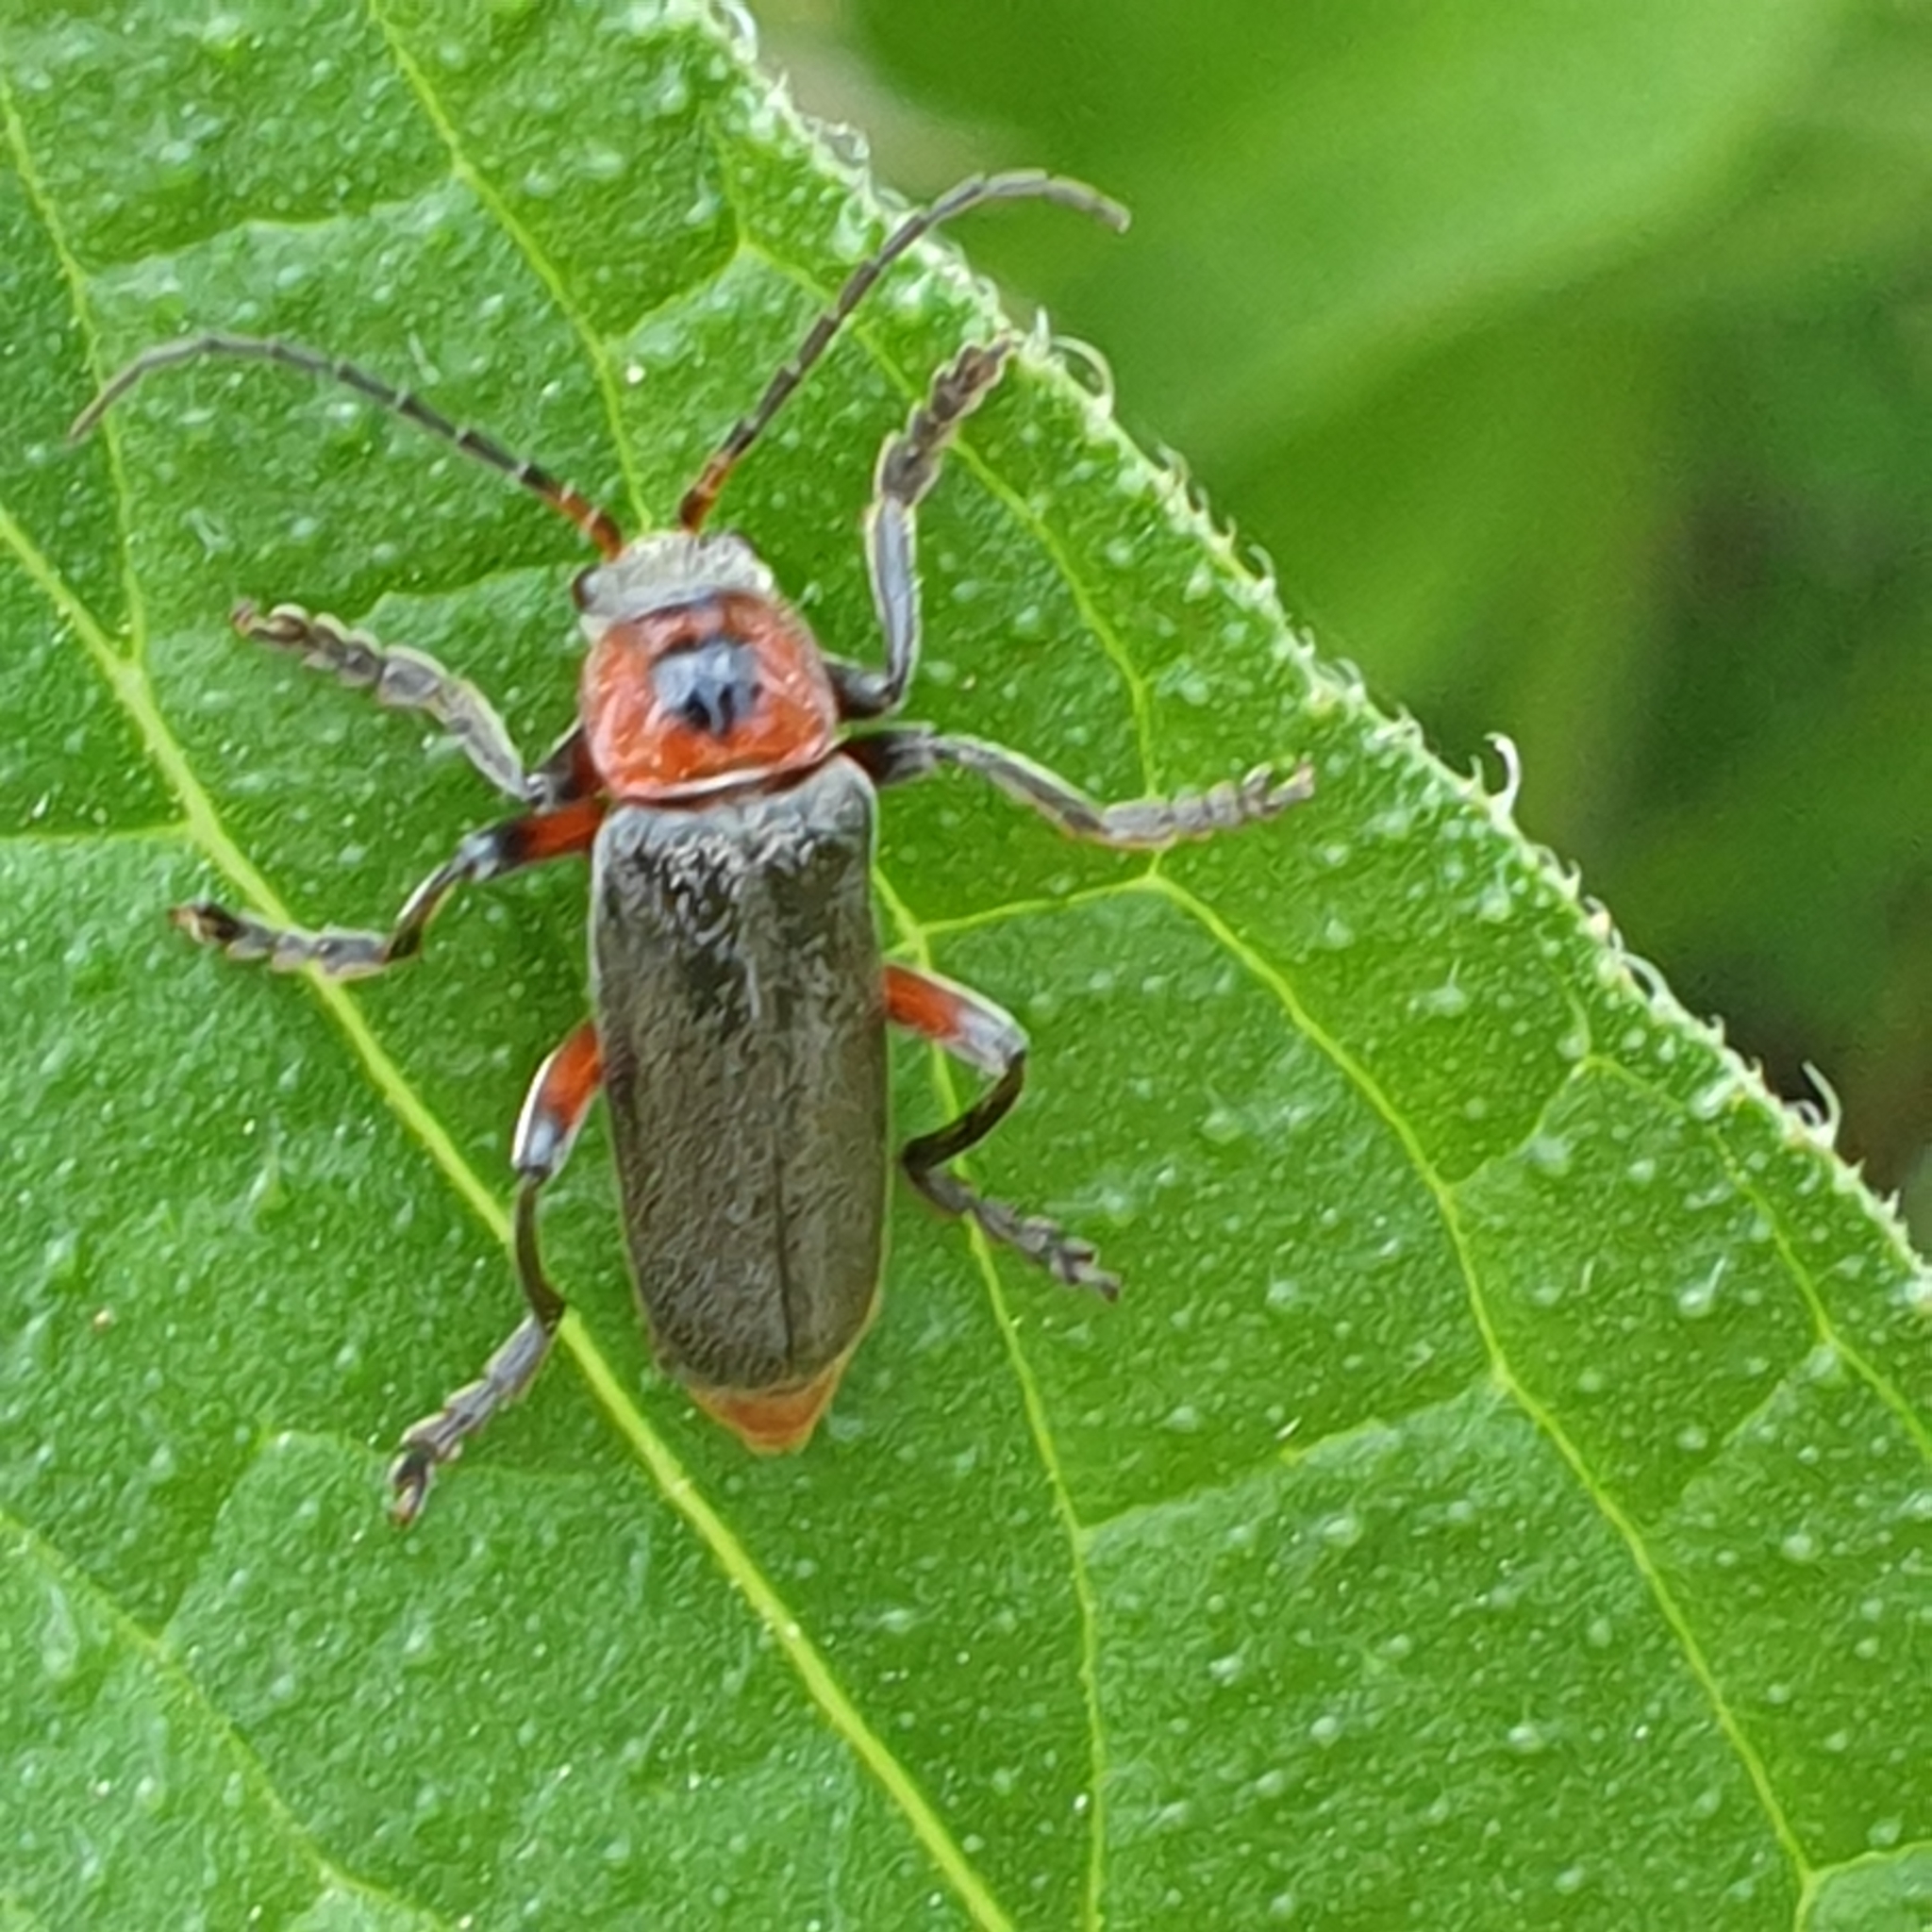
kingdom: Animalia
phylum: Arthropoda
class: Insecta
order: Coleoptera
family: Cantharidae
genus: Cantharis
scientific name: Cantharis rustica
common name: Soldier beetle
